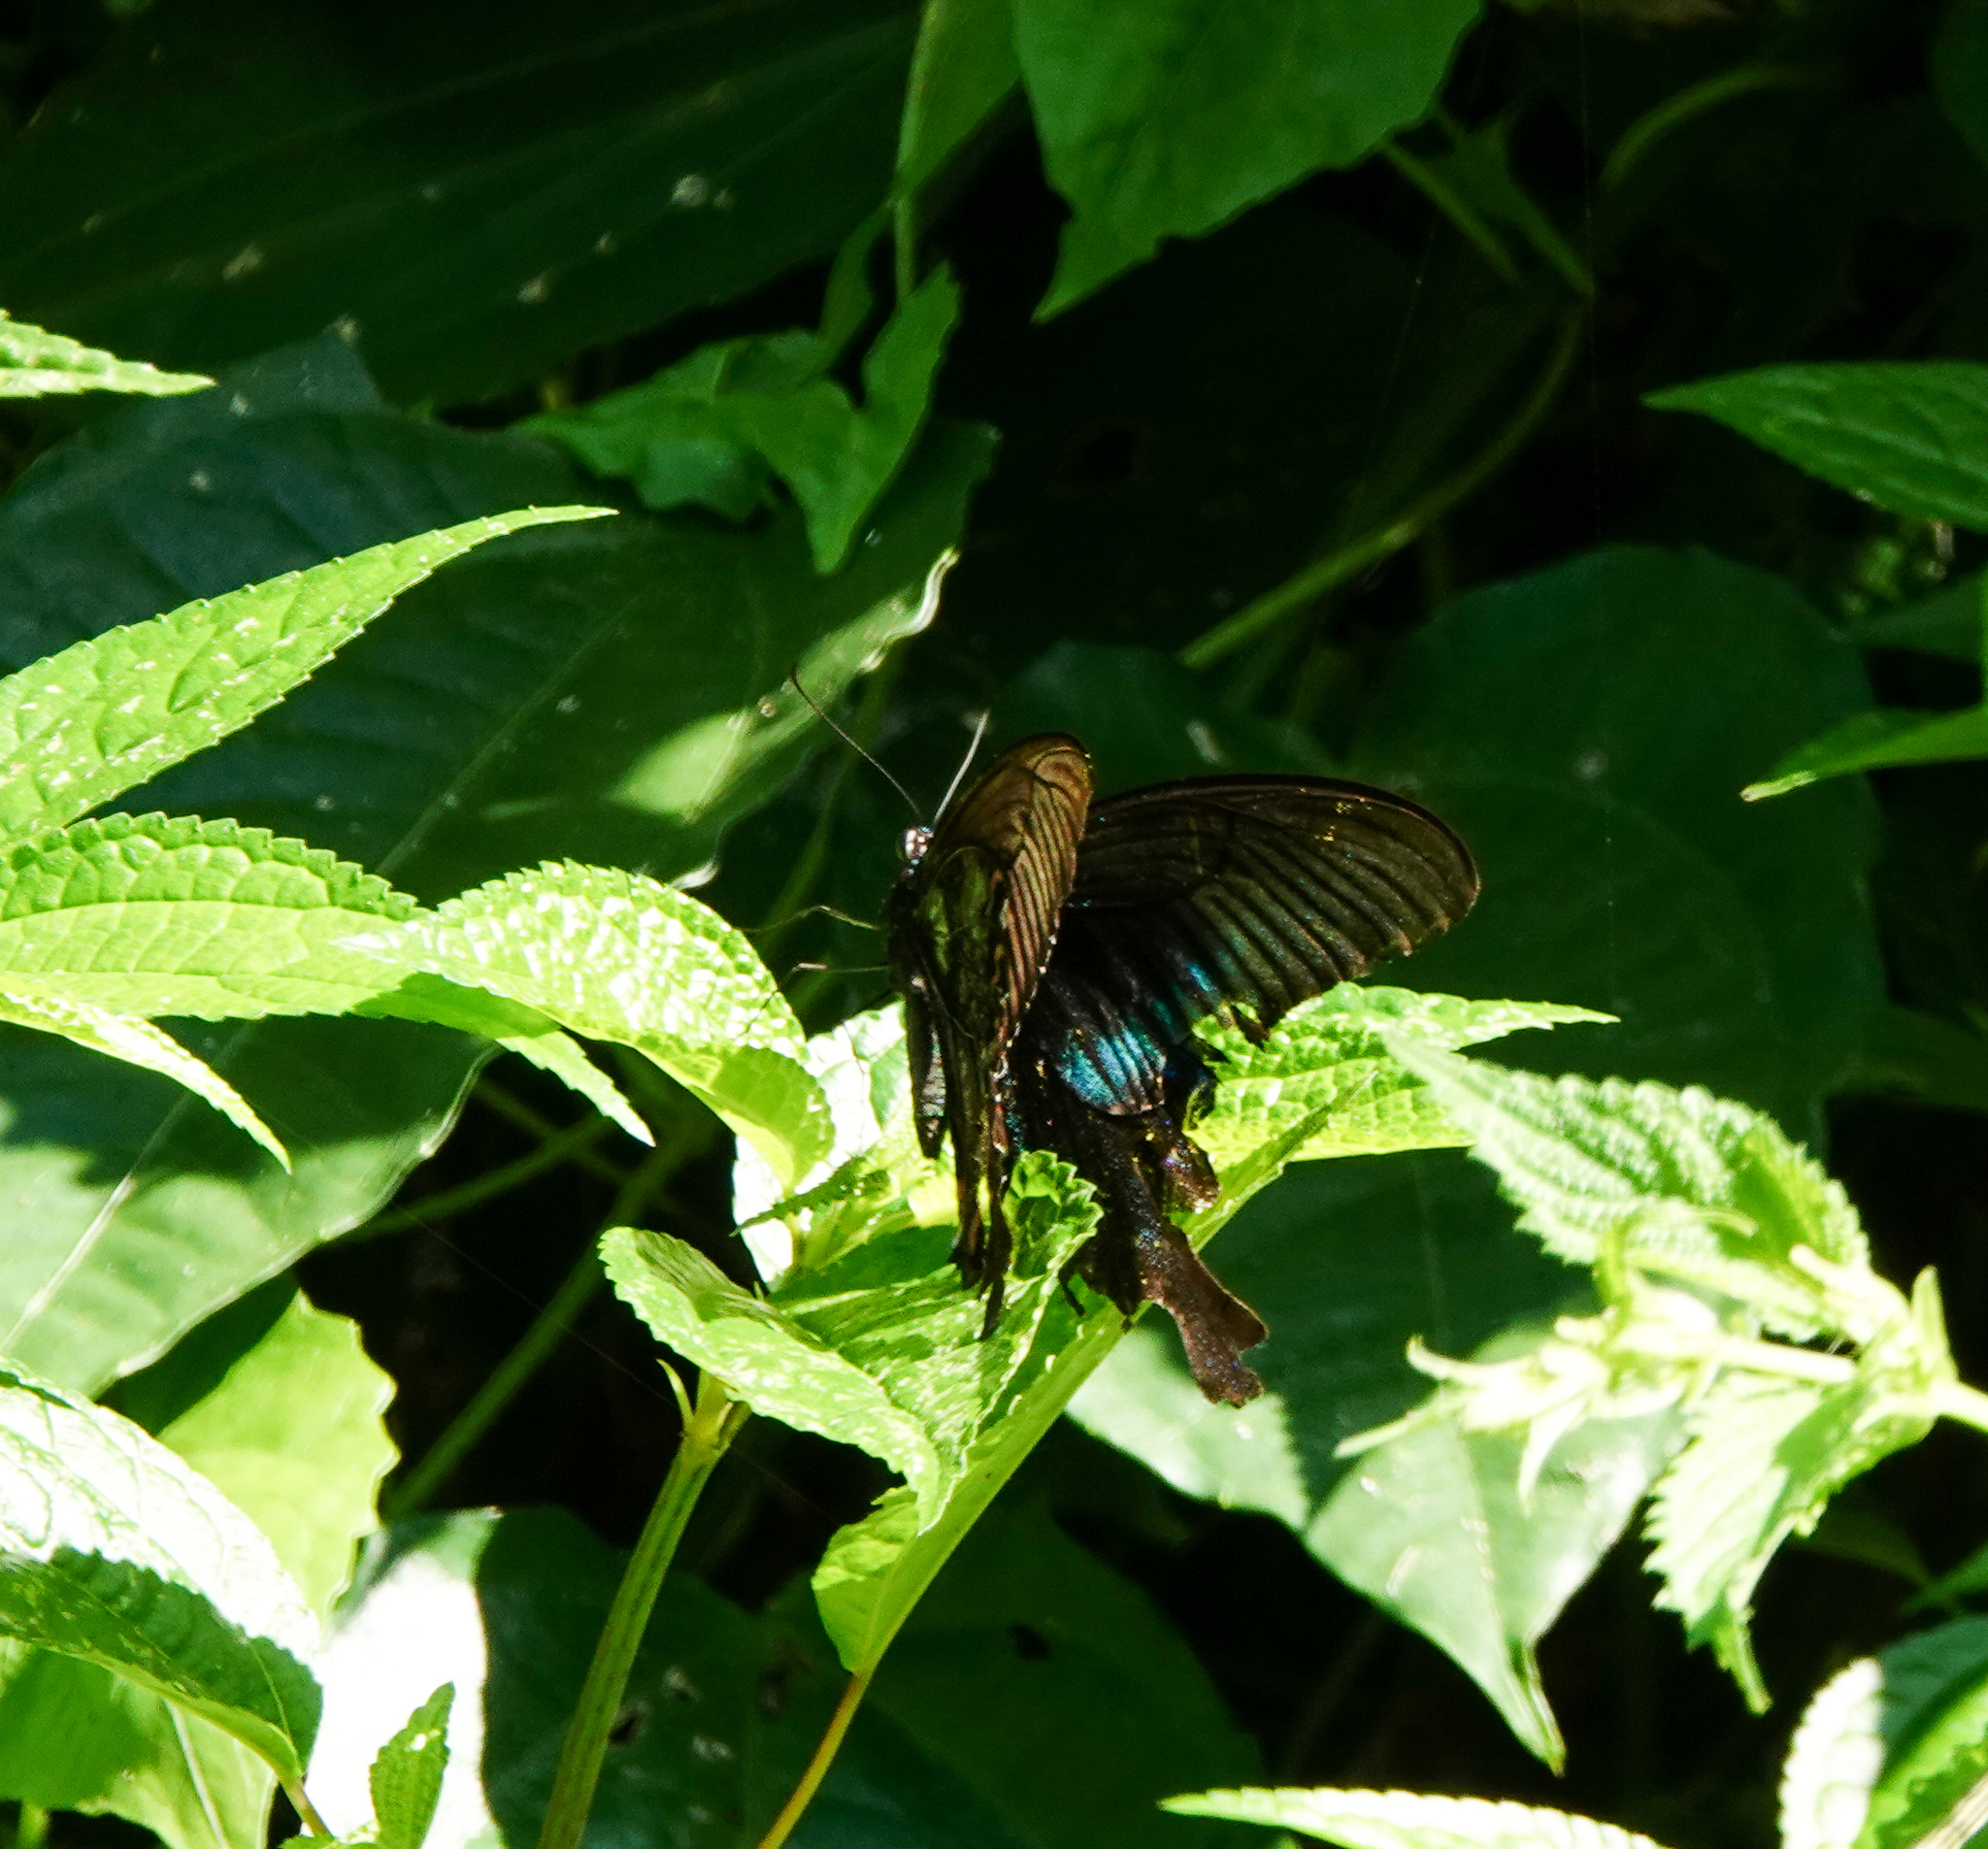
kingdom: Animalia
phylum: Arthropoda
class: Insecta
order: Lepidoptera
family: Papilionidae
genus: Papilio
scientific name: Papilio paris
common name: Paris peacock
